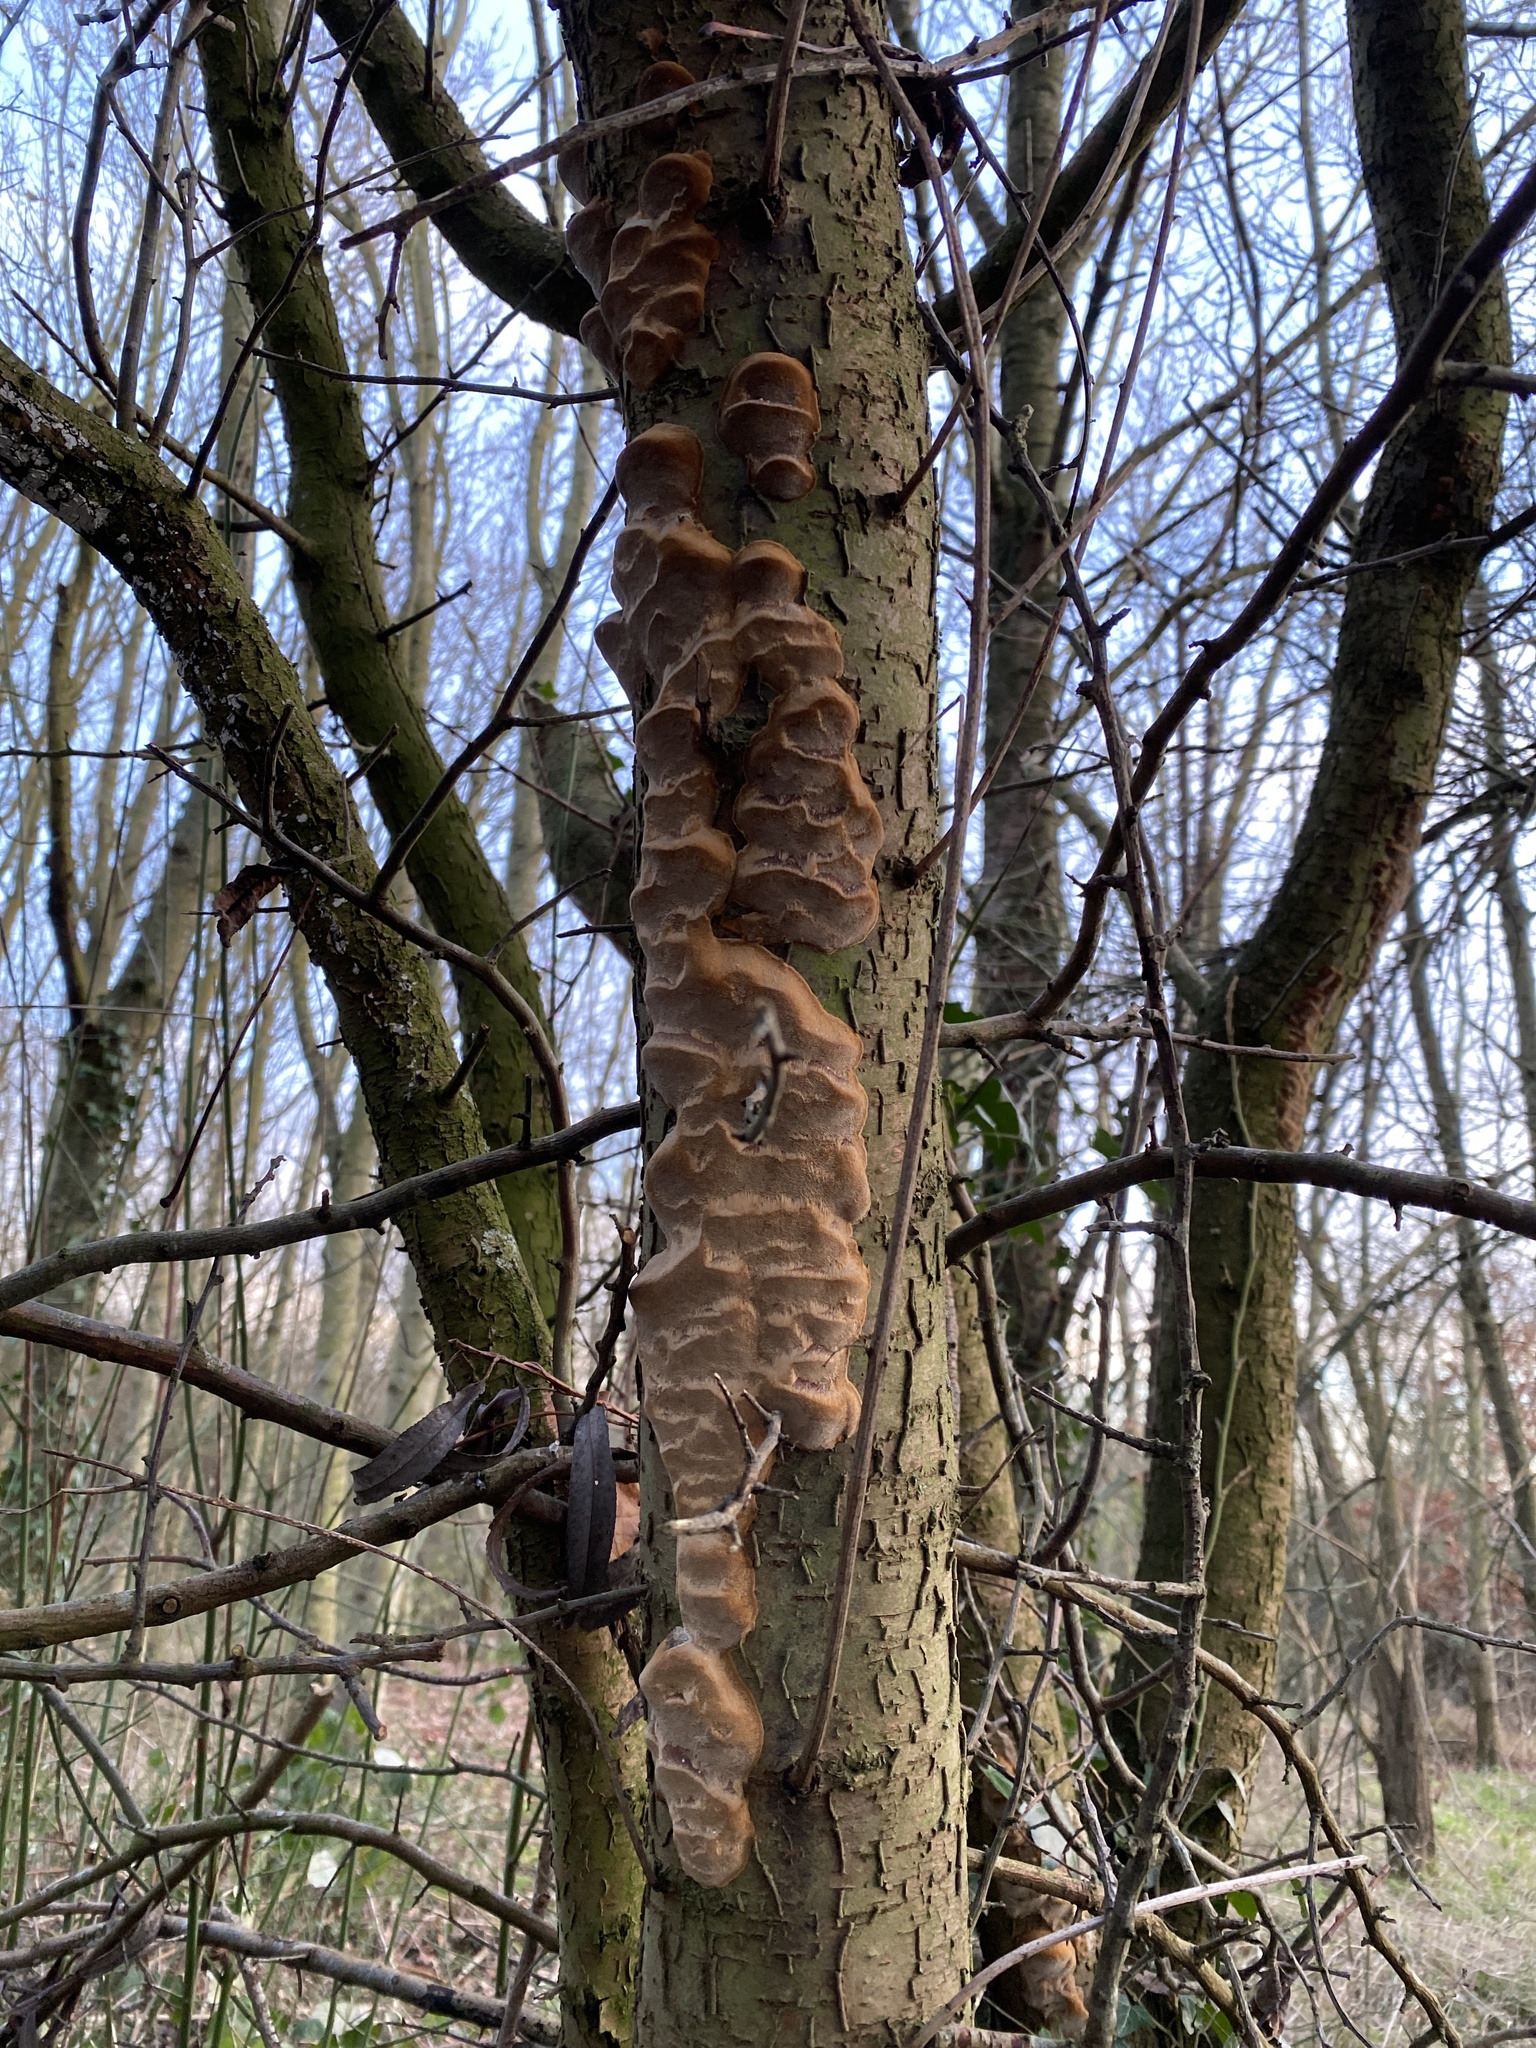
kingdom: Fungi
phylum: Basidiomycota
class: Agaricomycetes
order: Hymenochaetales
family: Hymenochaetaceae
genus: Phellinus
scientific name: Phellinus pomaceus
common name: Cushion bracket
